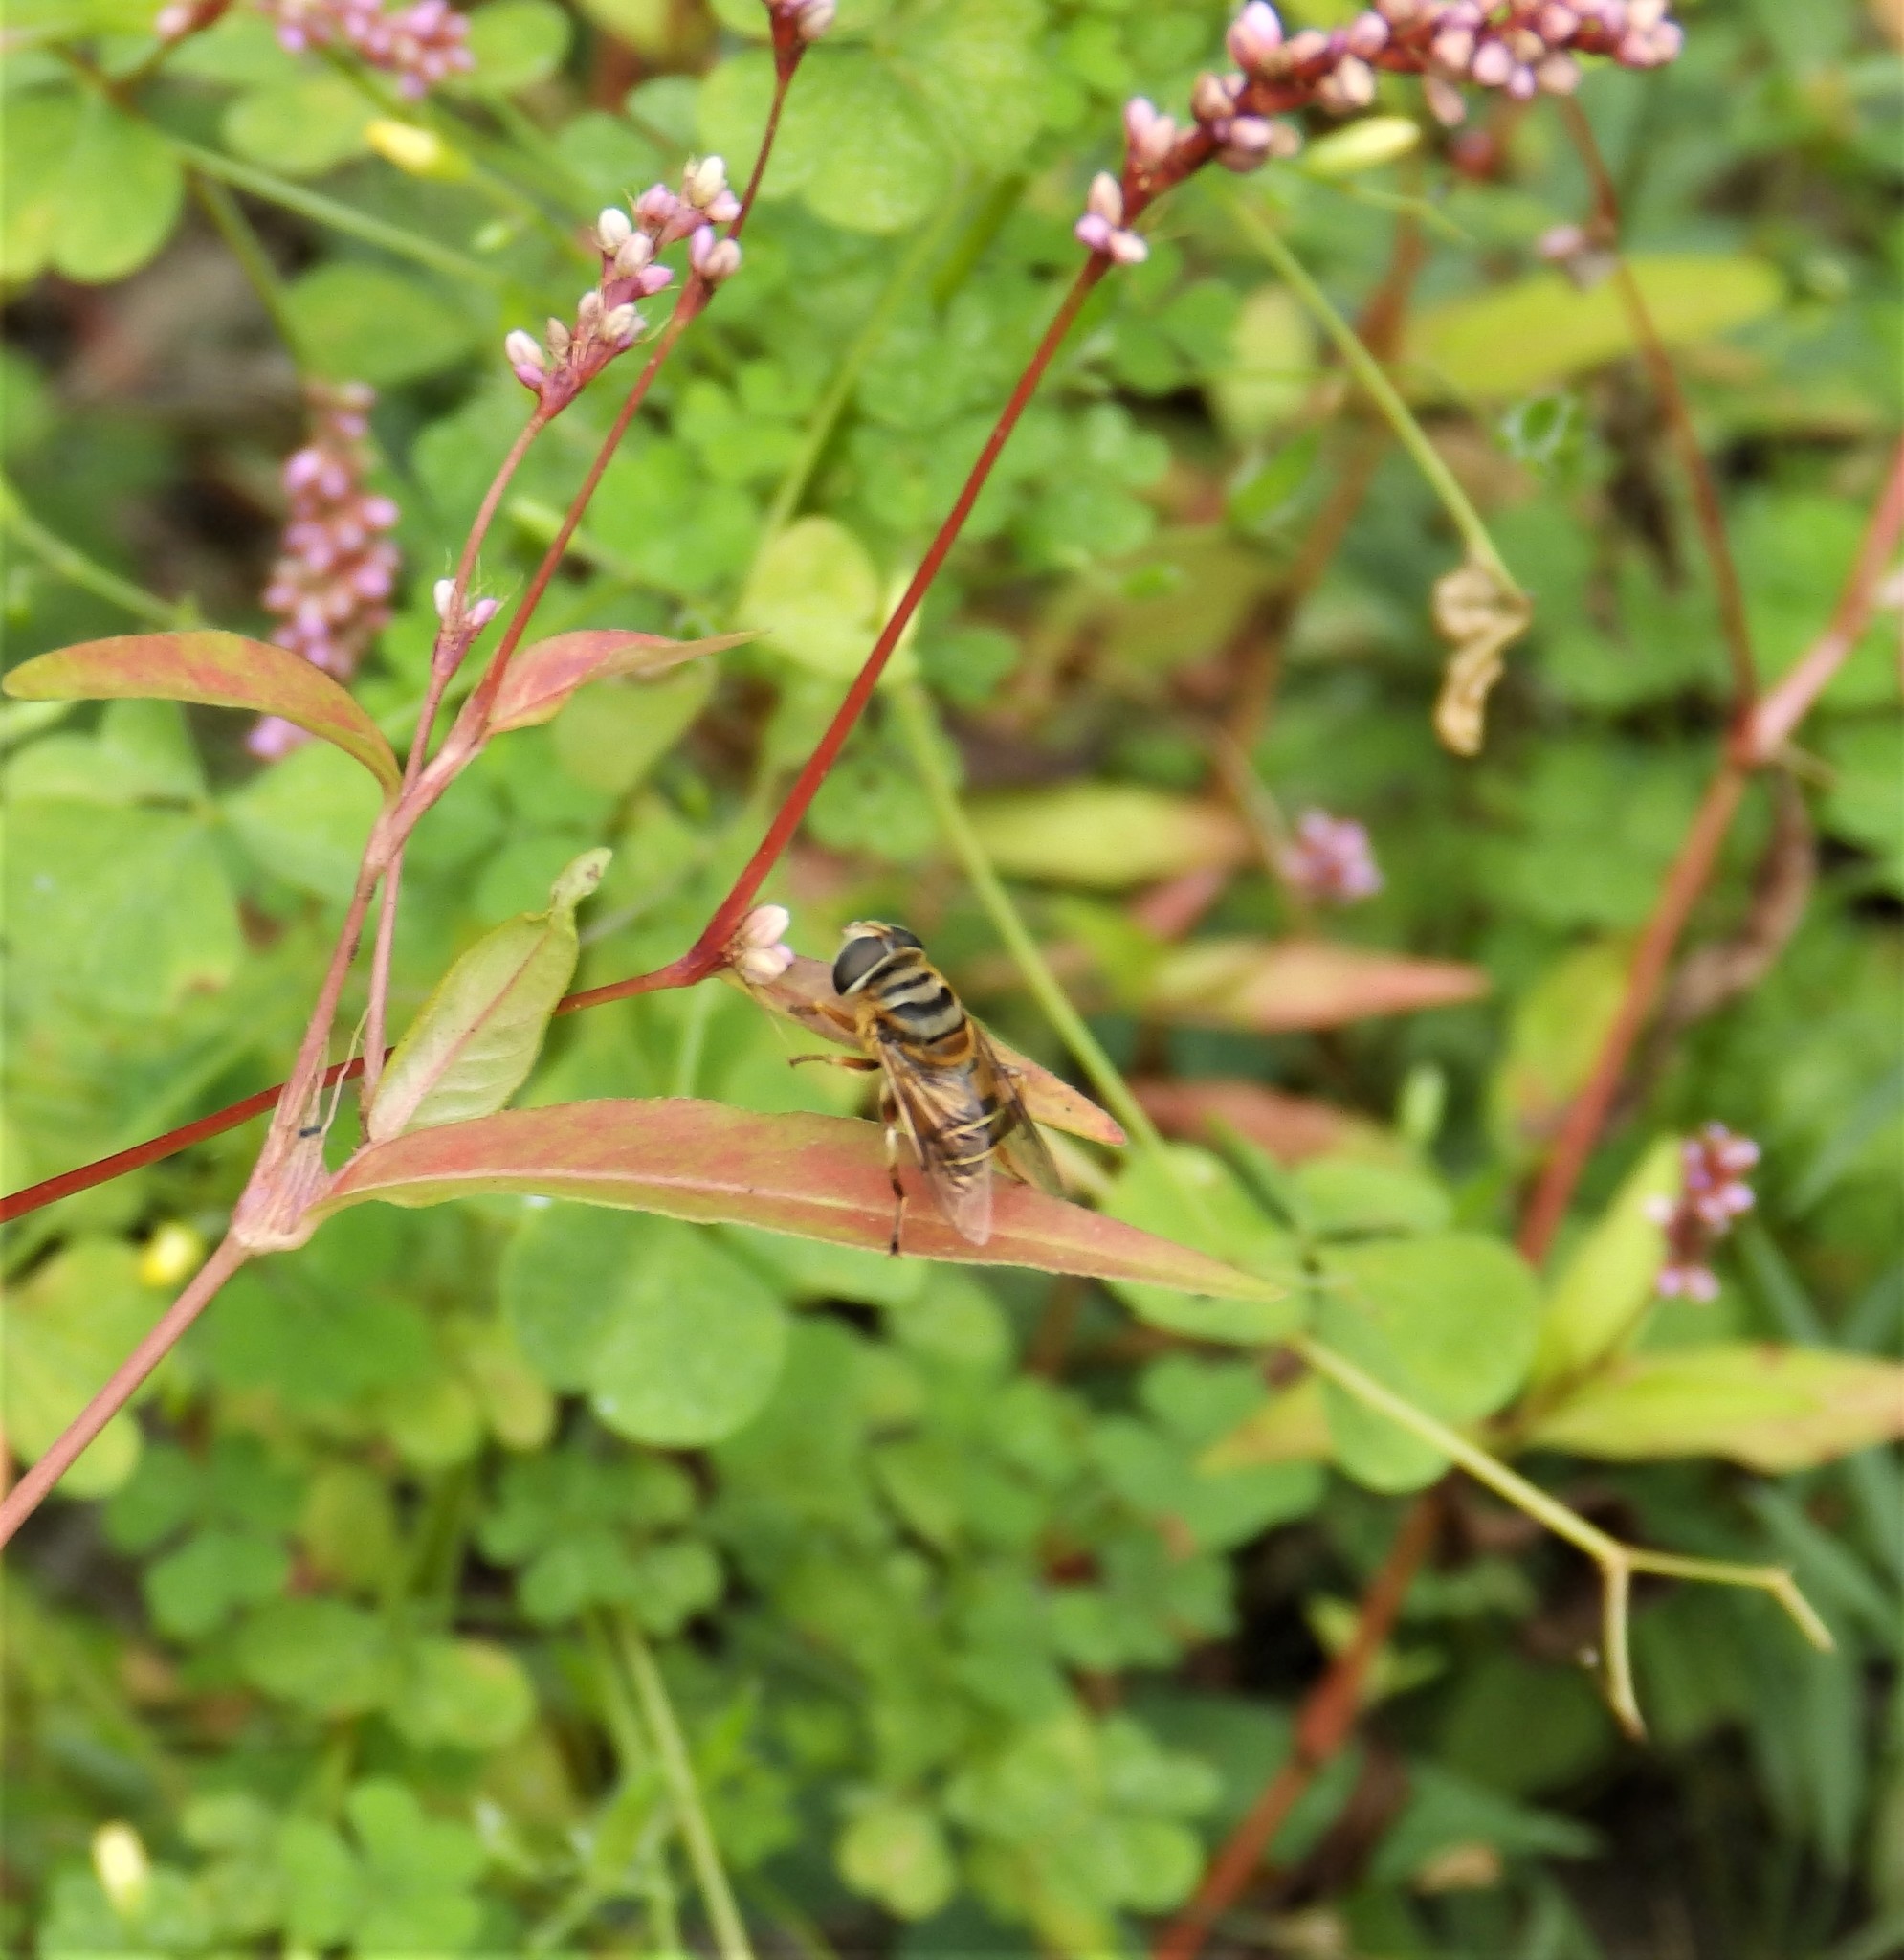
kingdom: Animalia
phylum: Arthropoda
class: Insecta
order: Diptera
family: Syrphidae
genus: Palpada
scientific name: Palpada vinetorum
